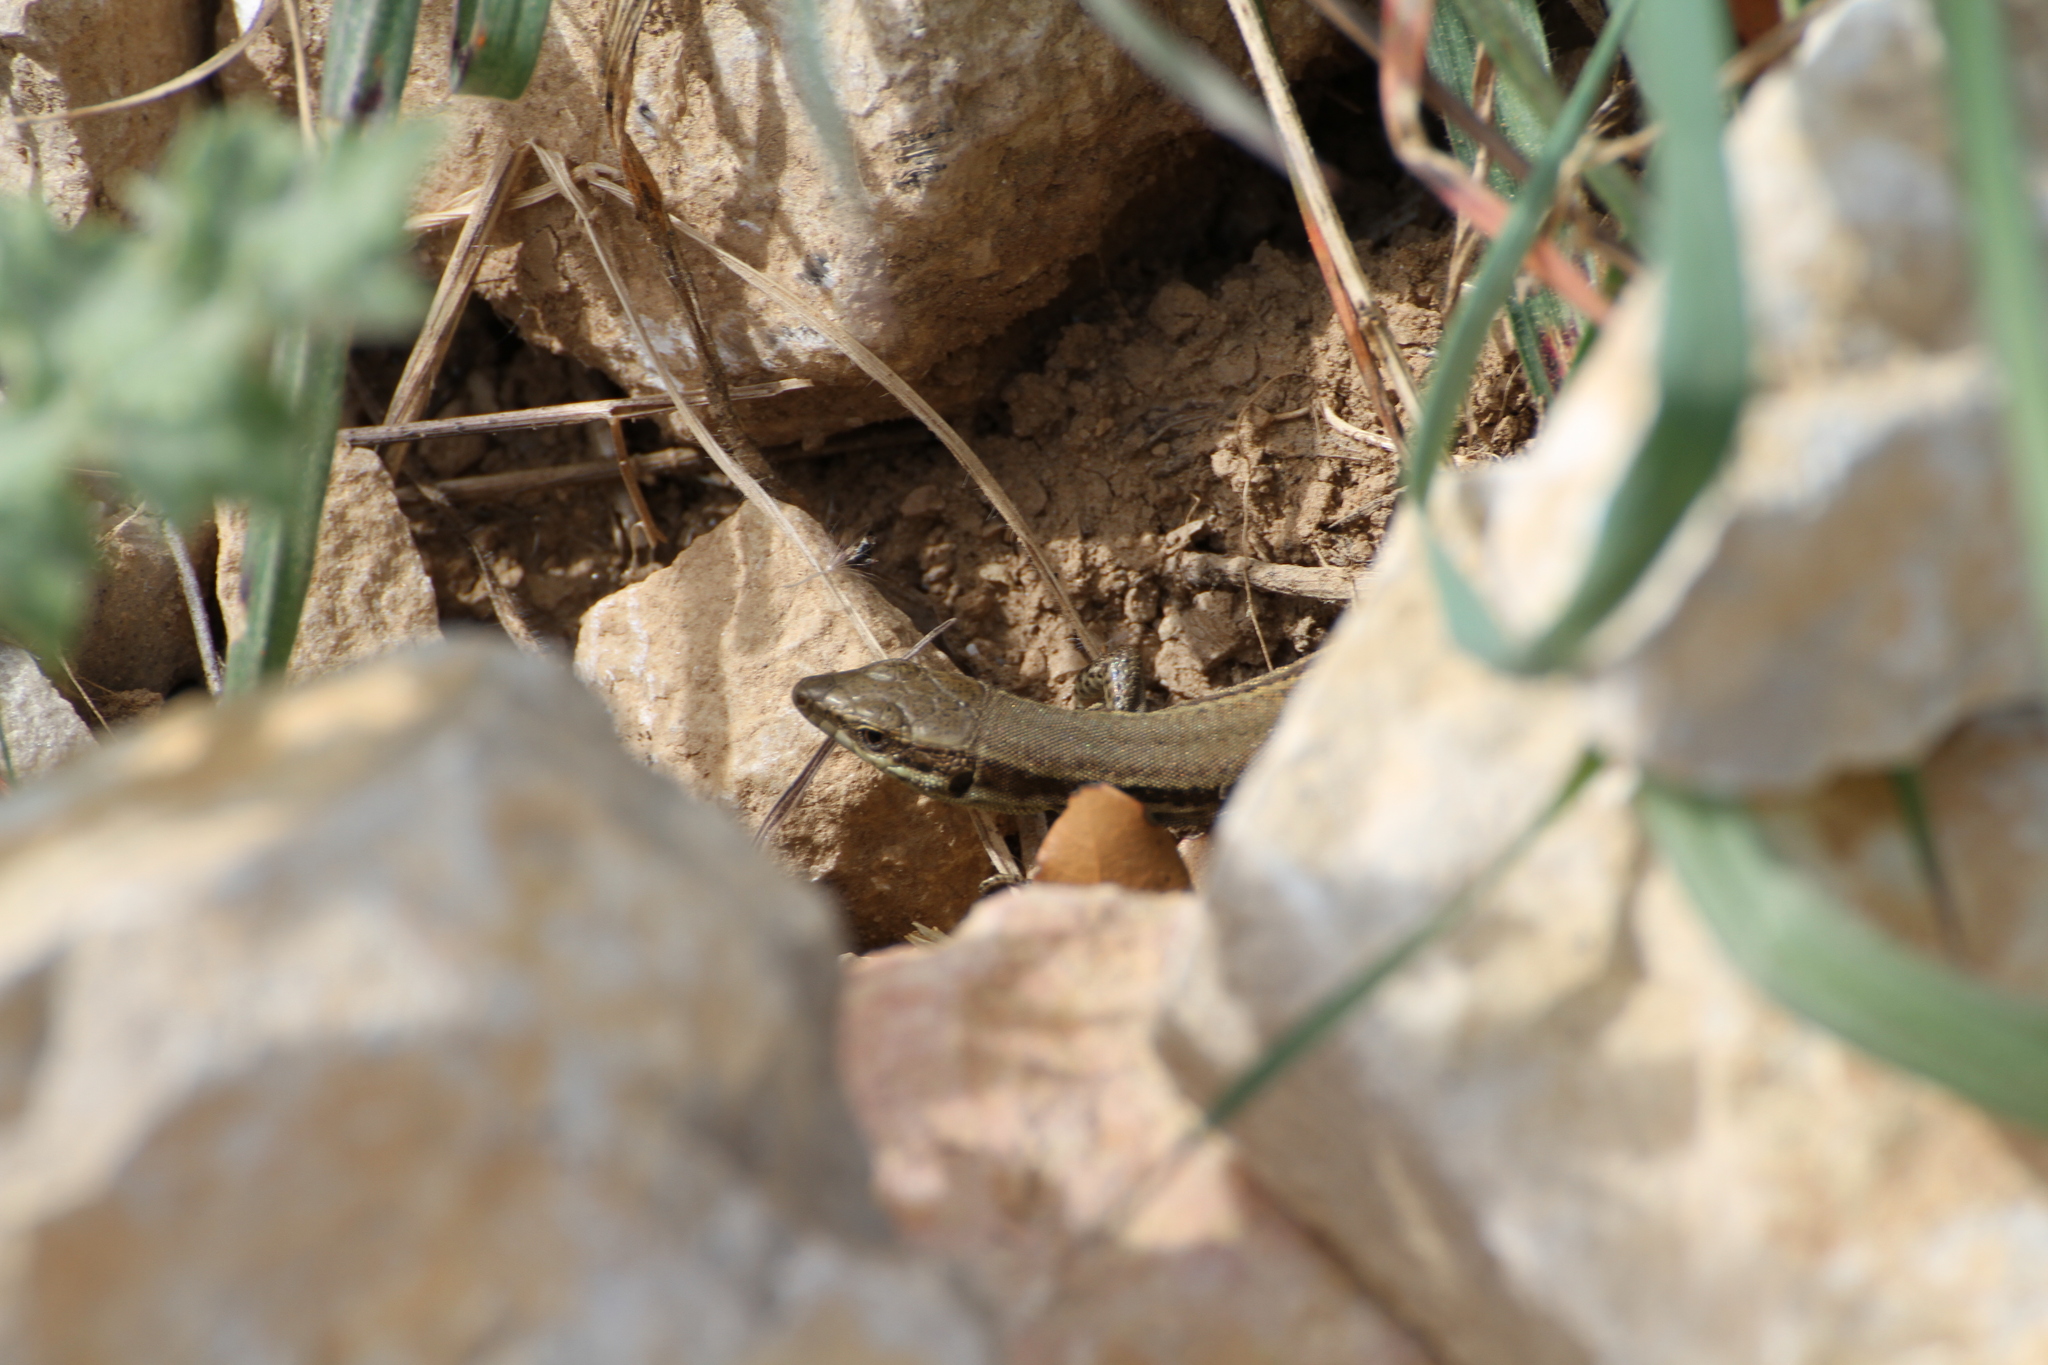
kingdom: Animalia
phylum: Chordata
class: Squamata
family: Lacertidae
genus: Podarcis
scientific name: Podarcis muralis
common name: Common wall lizard
